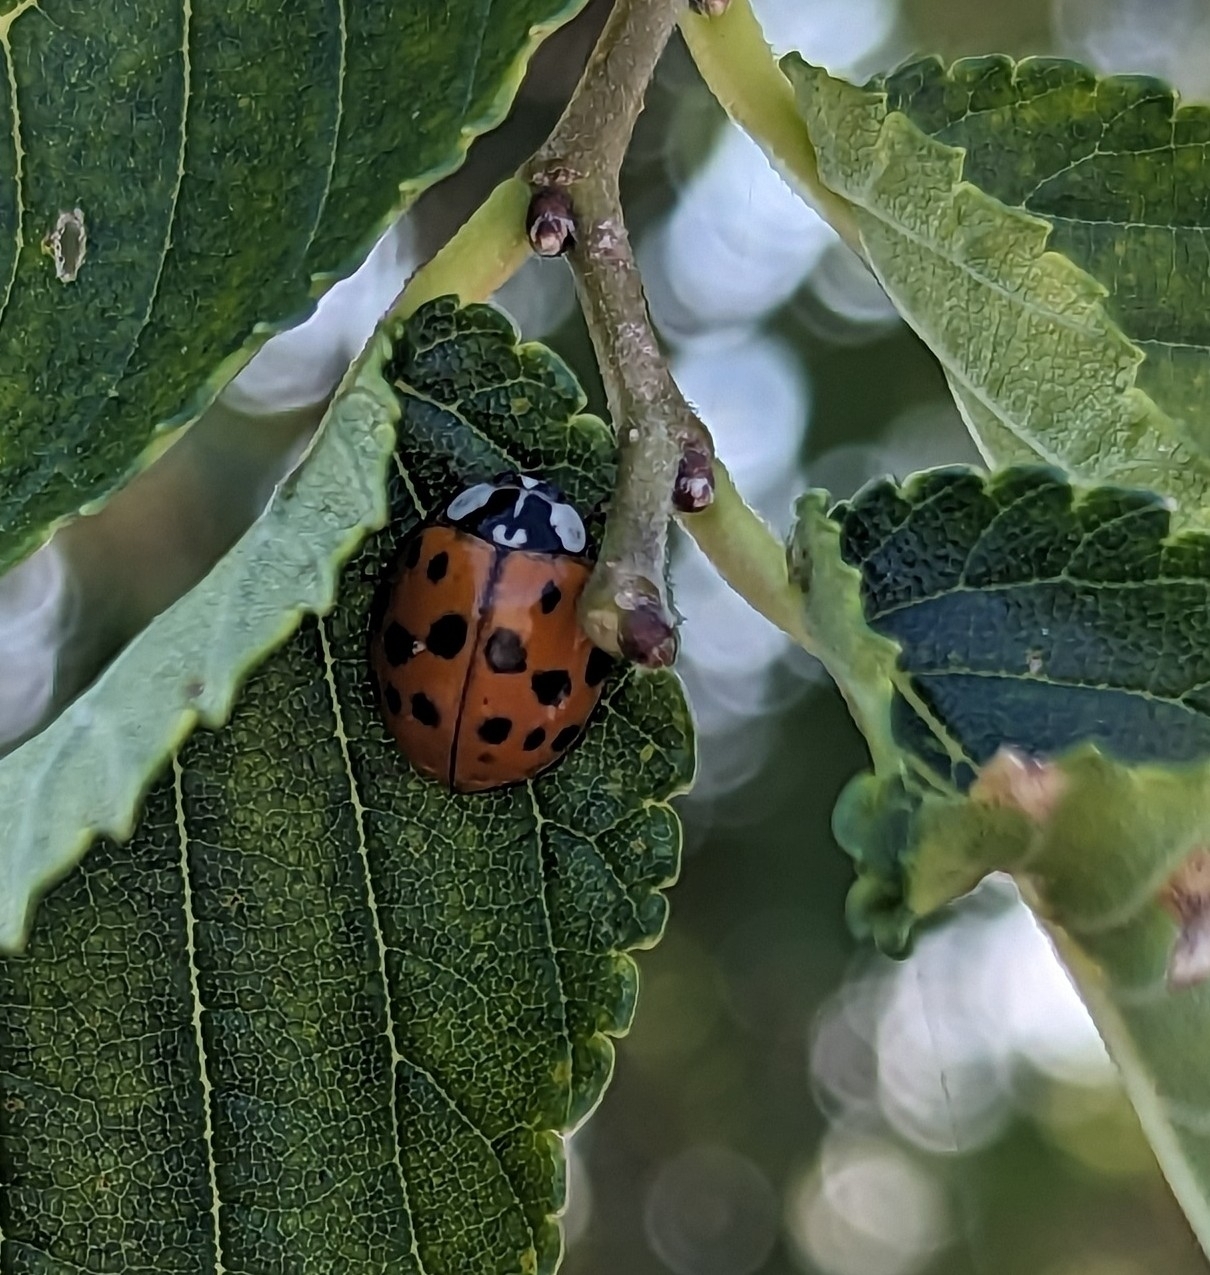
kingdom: Animalia
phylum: Arthropoda
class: Insecta
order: Coleoptera
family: Coccinellidae
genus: Harmonia
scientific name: Harmonia axyridis
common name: Harlequin ladybird
